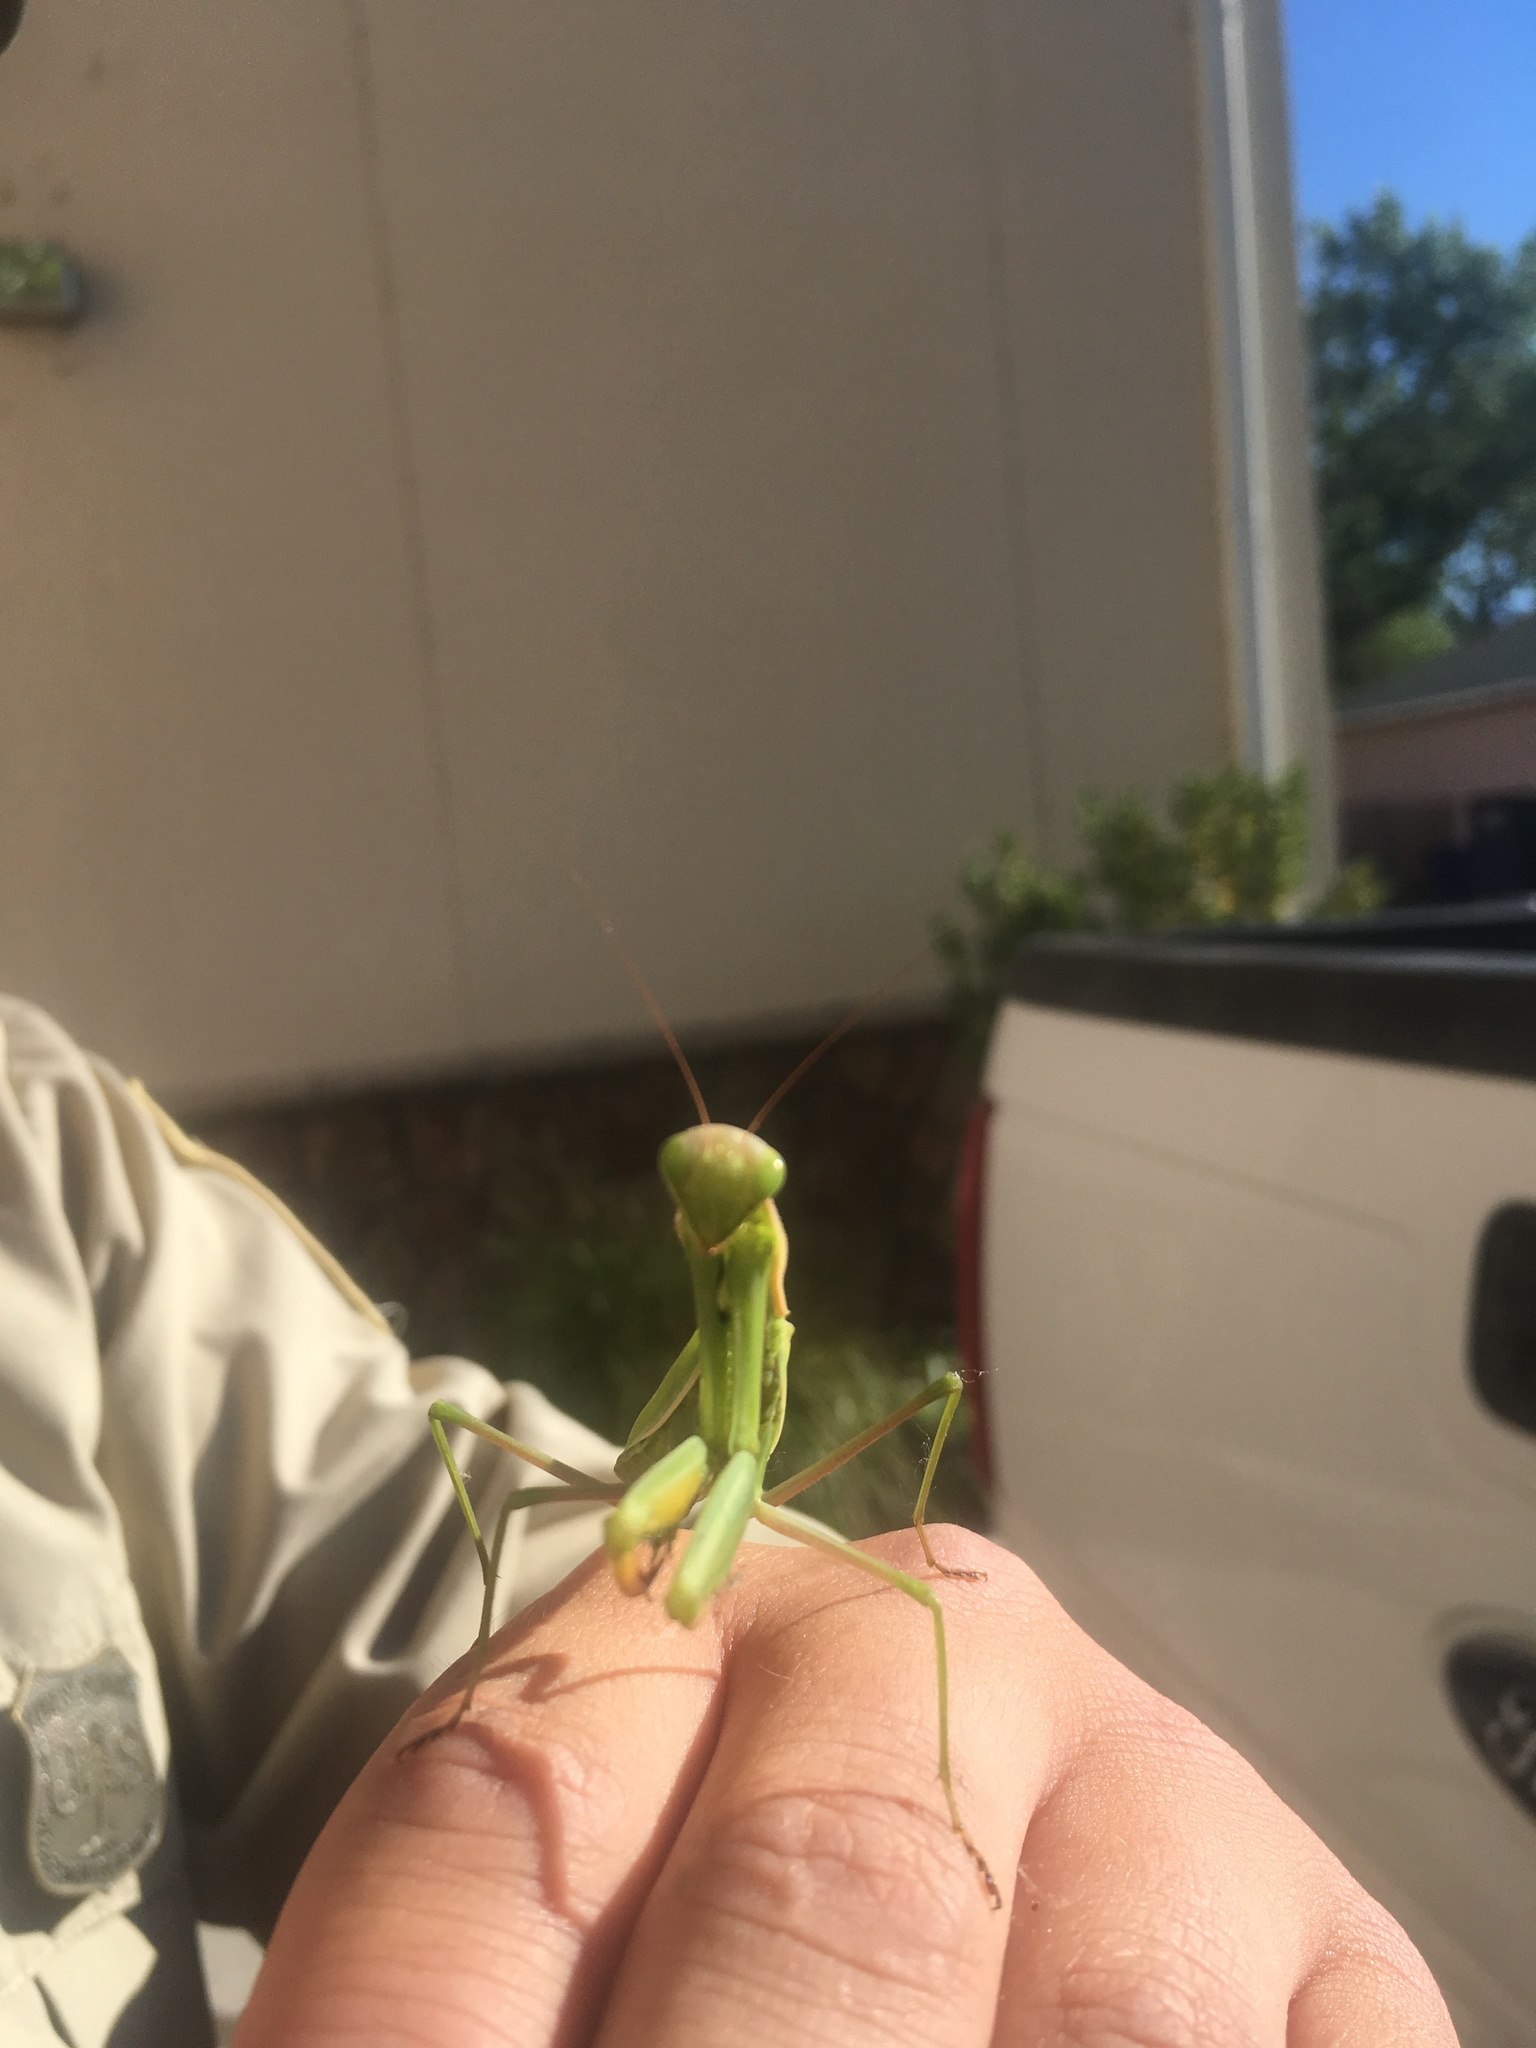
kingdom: Animalia
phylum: Arthropoda
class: Insecta
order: Mantodea
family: Mantidae
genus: Mantis
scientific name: Mantis religiosa
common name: Praying mantis
